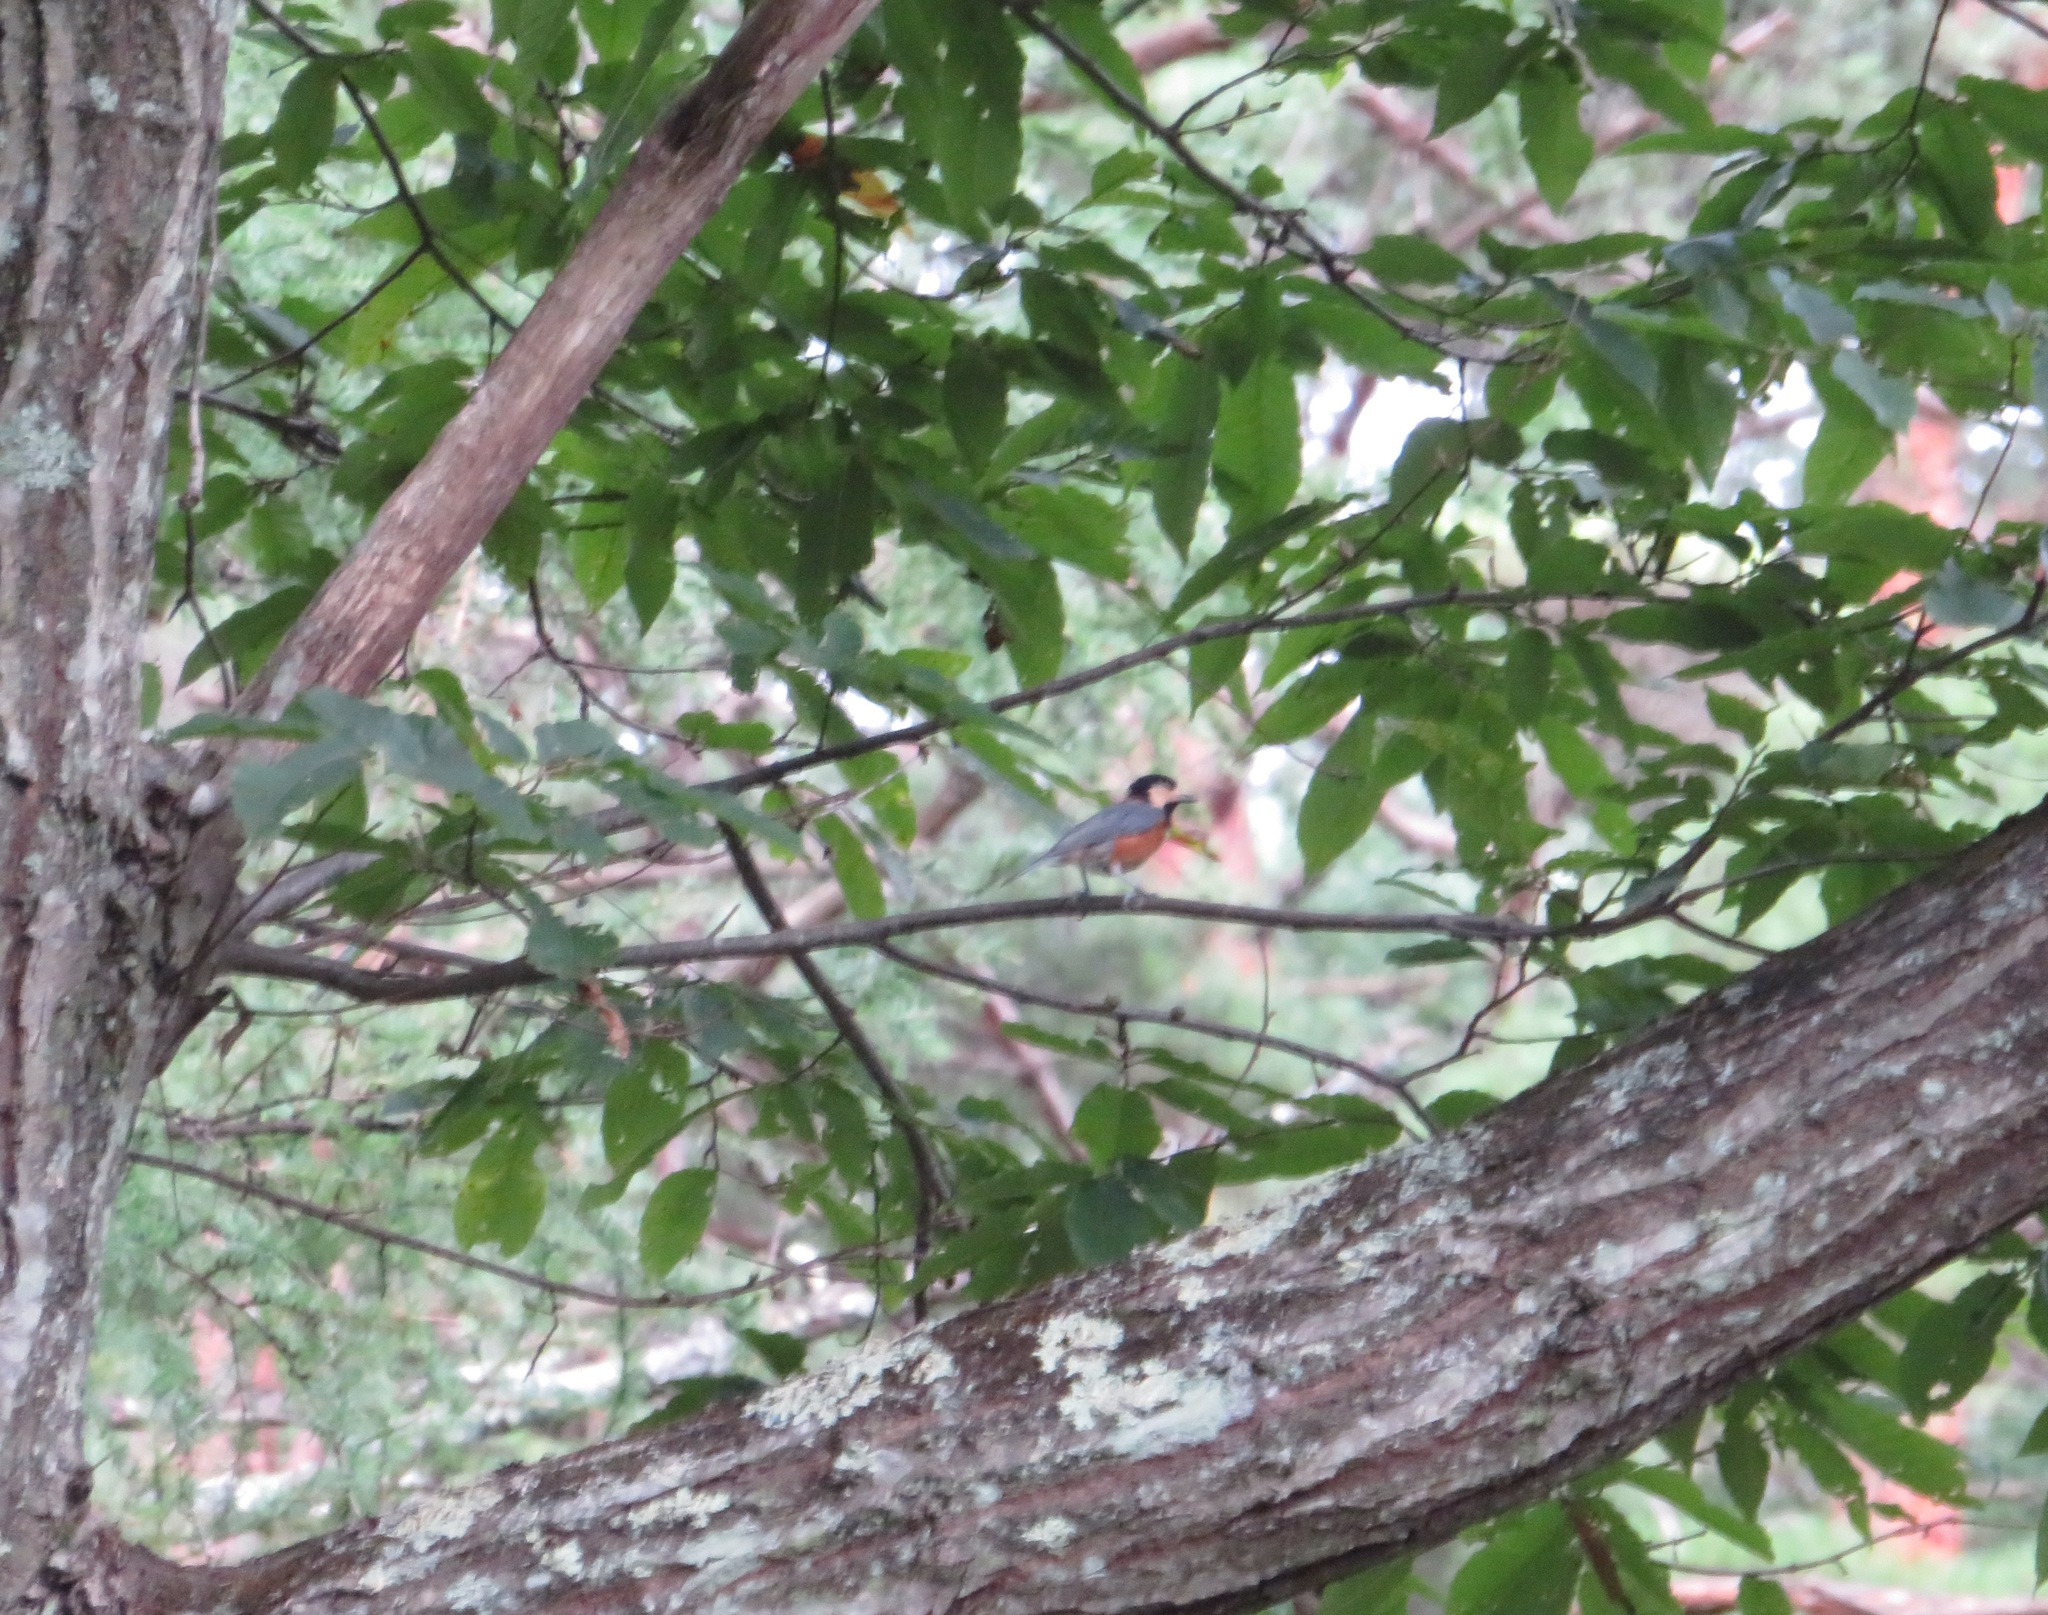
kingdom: Animalia
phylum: Chordata
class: Aves
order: Passeriformes
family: Paridae
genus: Poecile
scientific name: Poecile varius
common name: Varied tit
